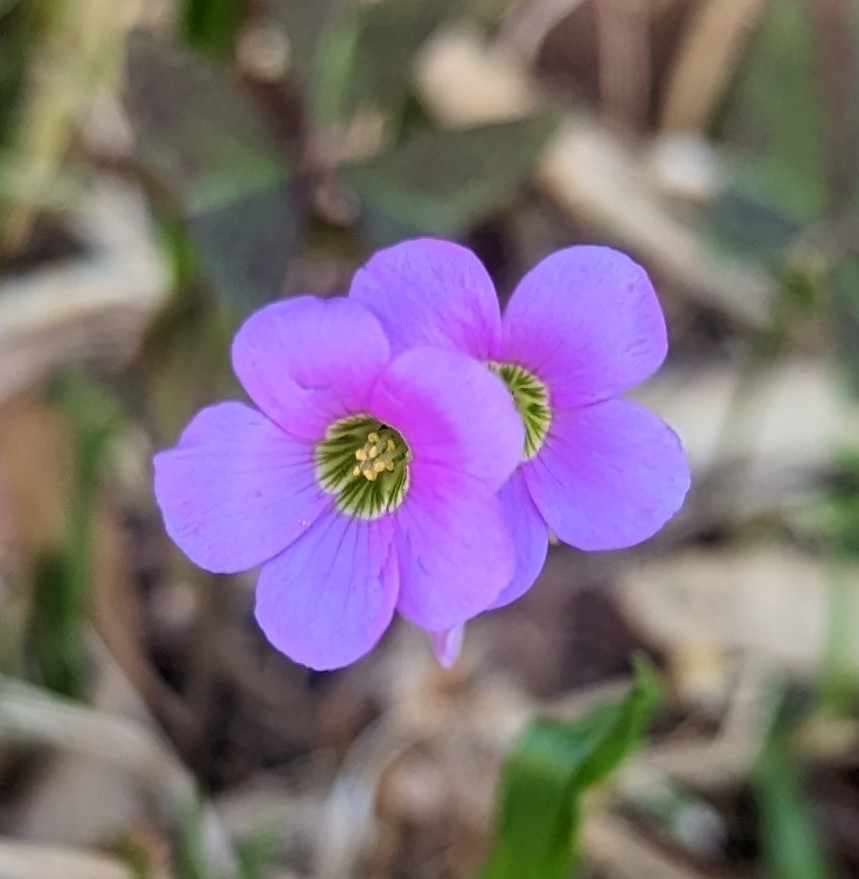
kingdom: Plantae
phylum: Tracheophyta
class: Magnoliopsida
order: Oxalidales
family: Oxalidaceae
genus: Oxalis
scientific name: Oxalis latifolia
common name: Garden pink-sorrel
